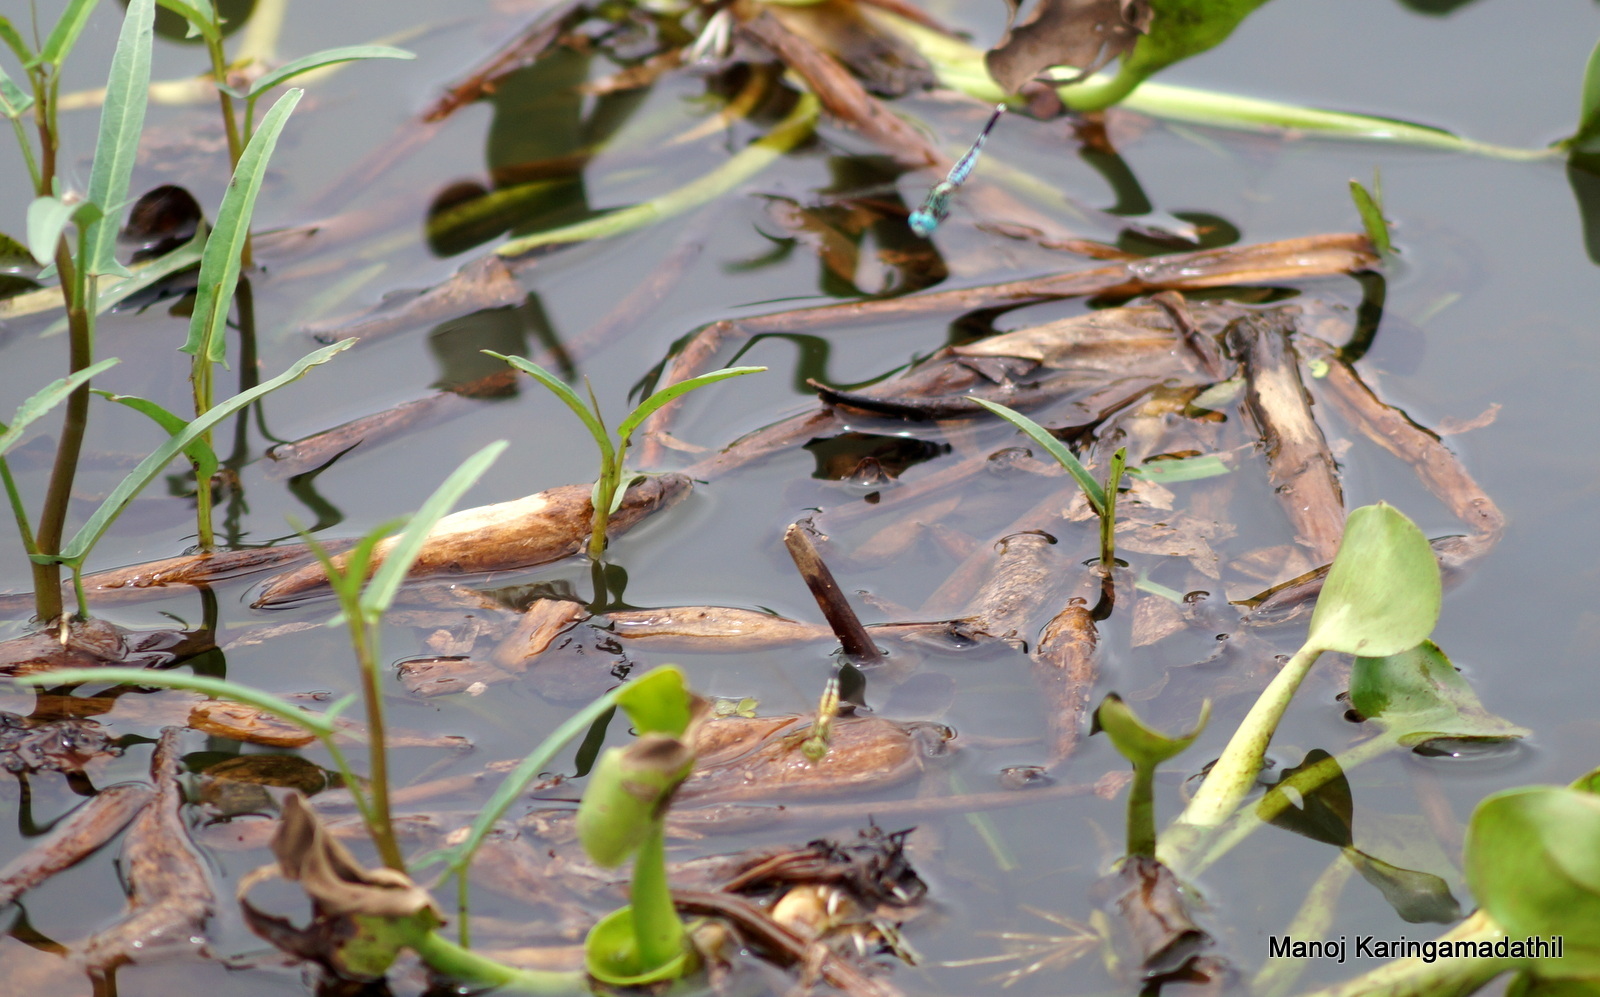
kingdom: Animalia
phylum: Arthropoda
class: Insecta
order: Odonata
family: Libellulidae
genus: Acisoma
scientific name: Acisoma panorpoides
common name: Asian pintail
